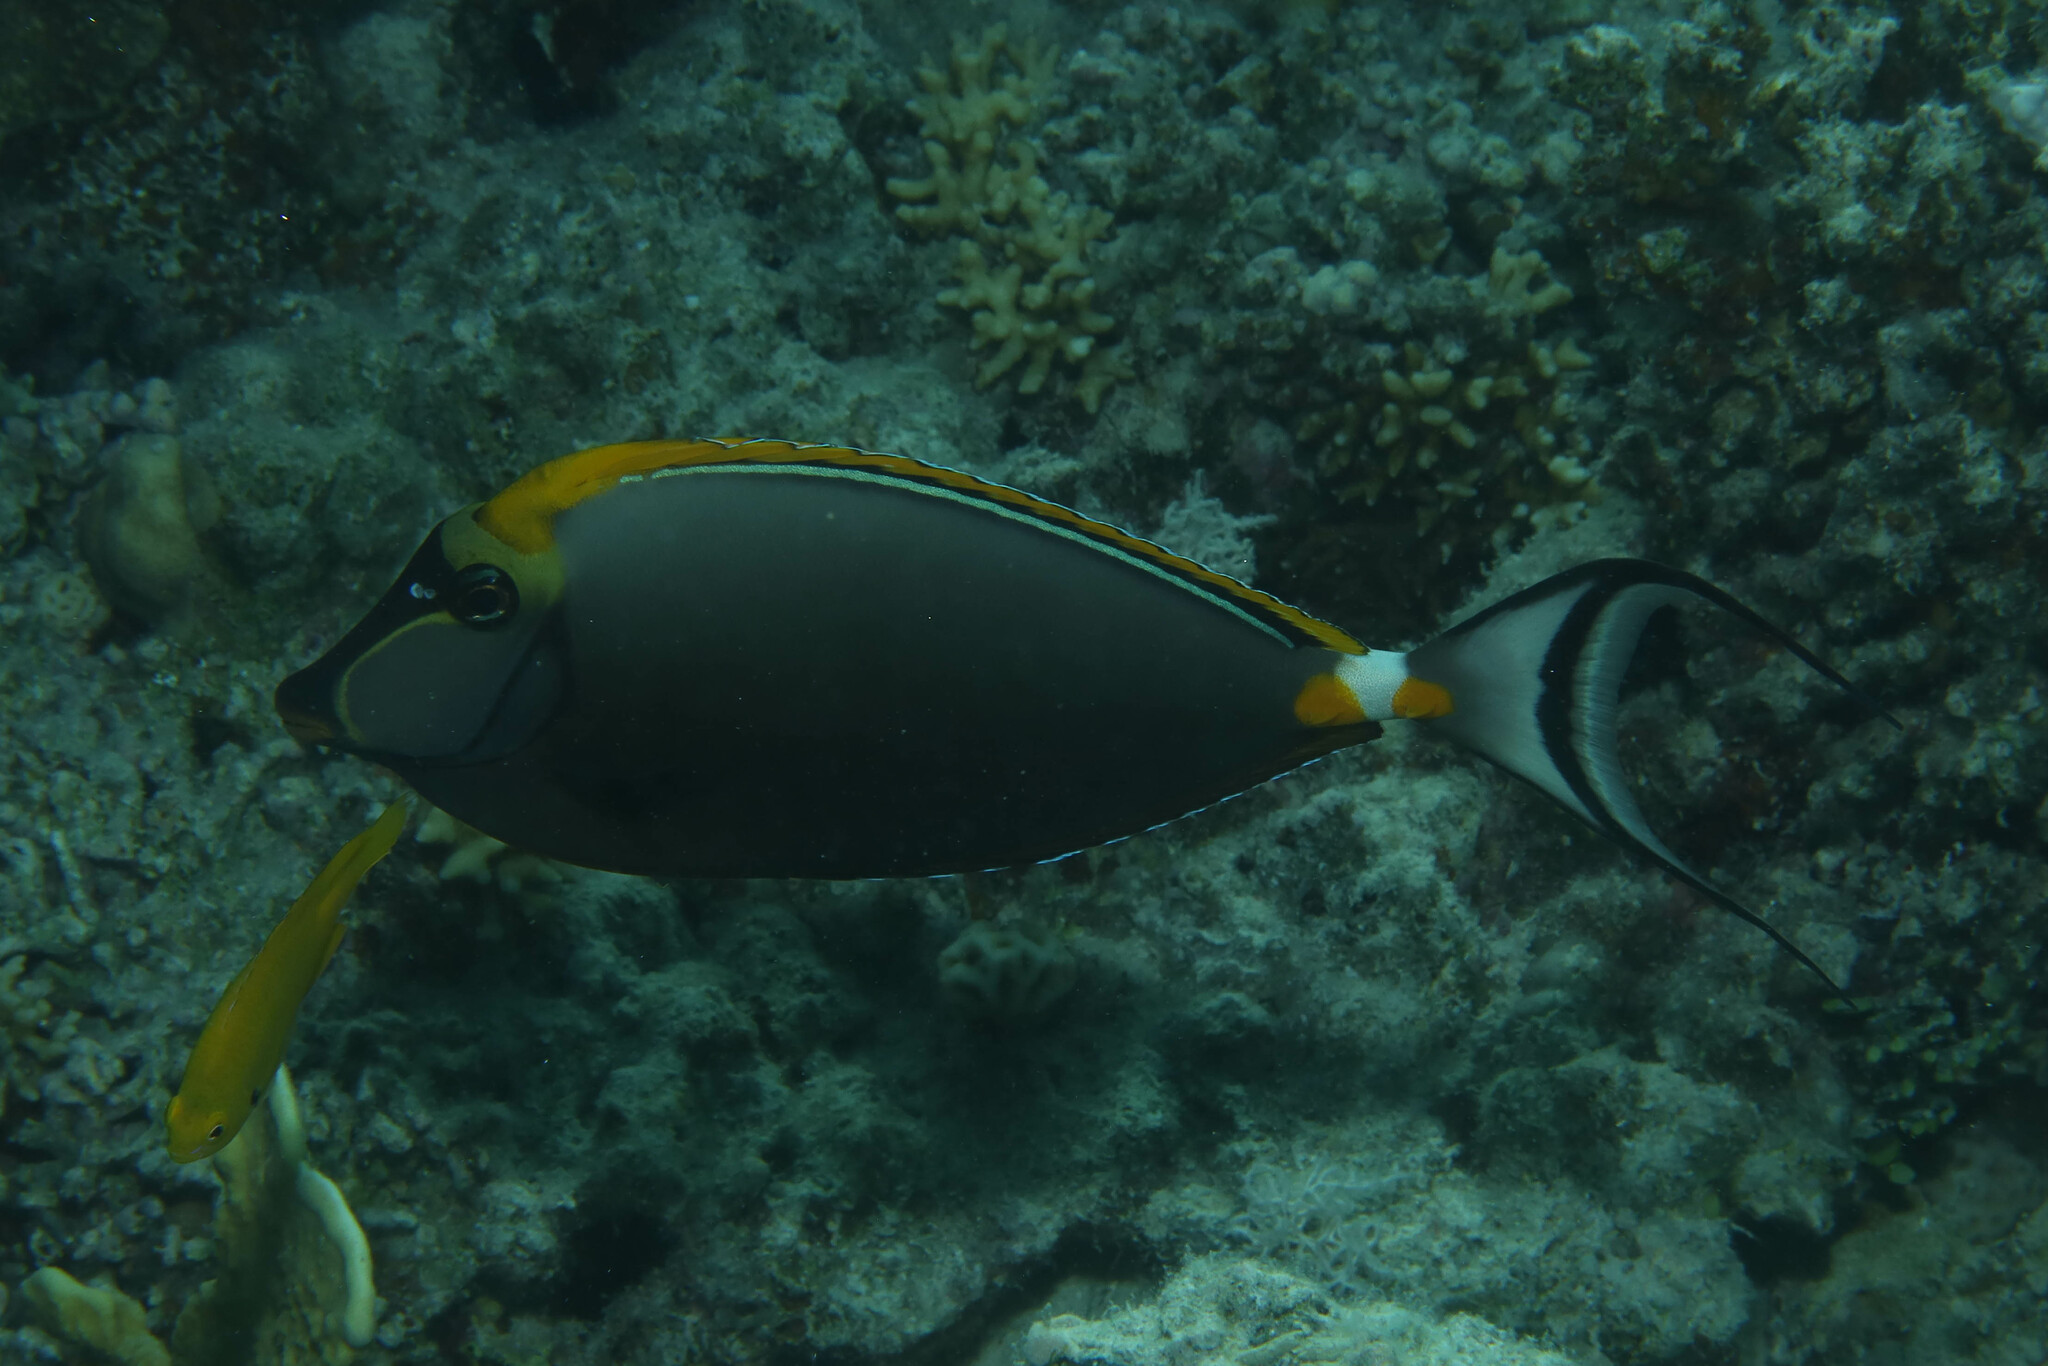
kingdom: Animalia
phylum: Chordata
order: Perciformes
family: Acanthuridae
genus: Naso
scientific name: Naso elegans
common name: Orangespine unicornfish
